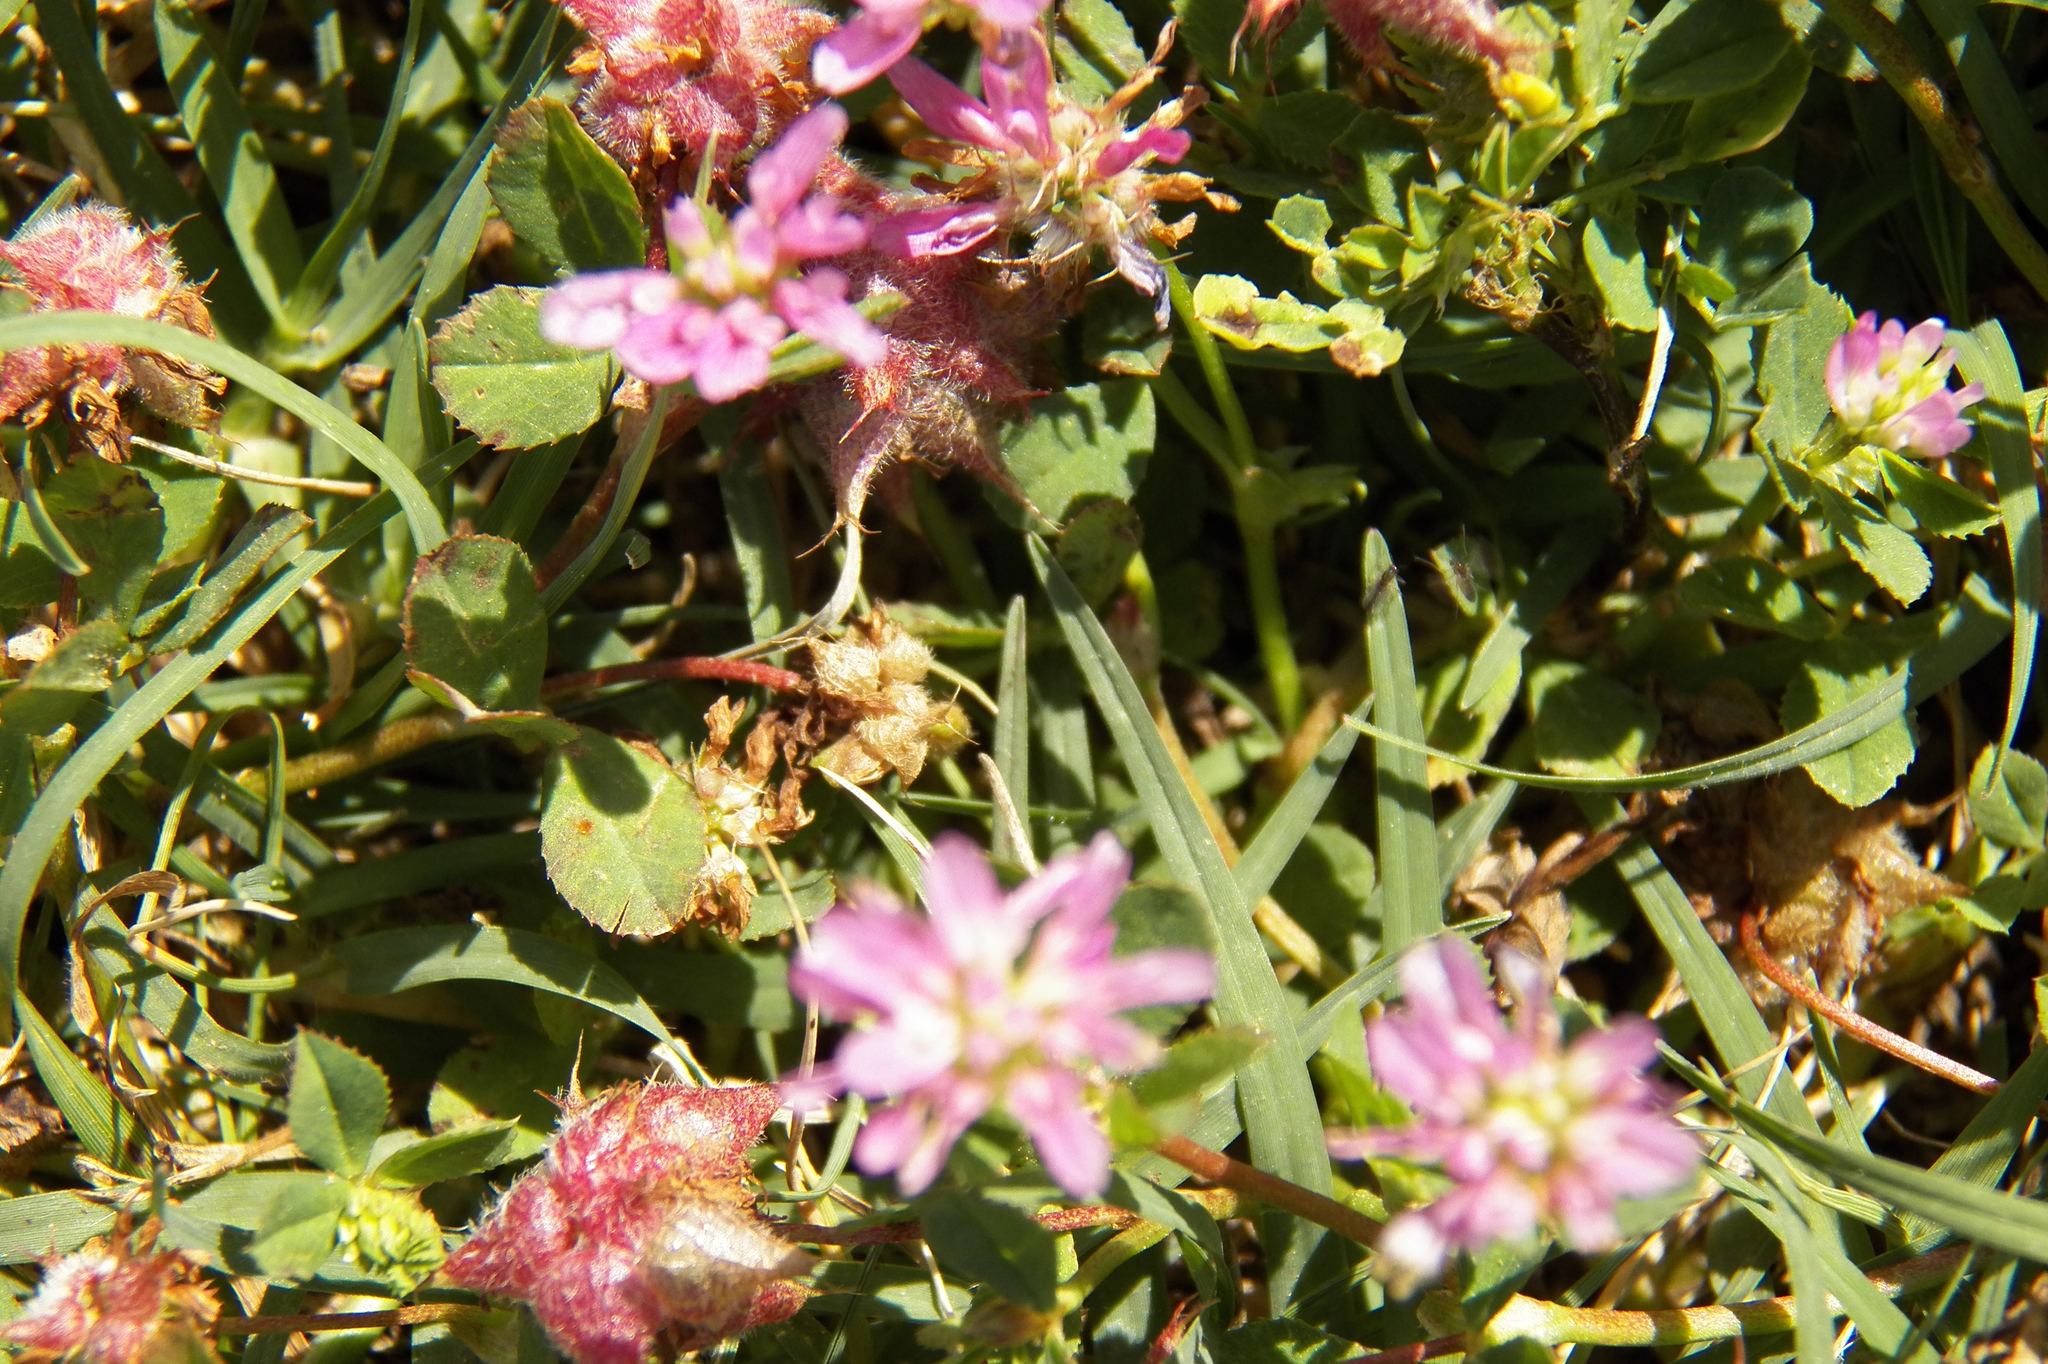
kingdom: Plantae
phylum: Tracheophyta
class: Magnoliopsida
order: Fabales
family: Fabaceae
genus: Trifolium
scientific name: Trifolium resupinatum
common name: Reversed clover
